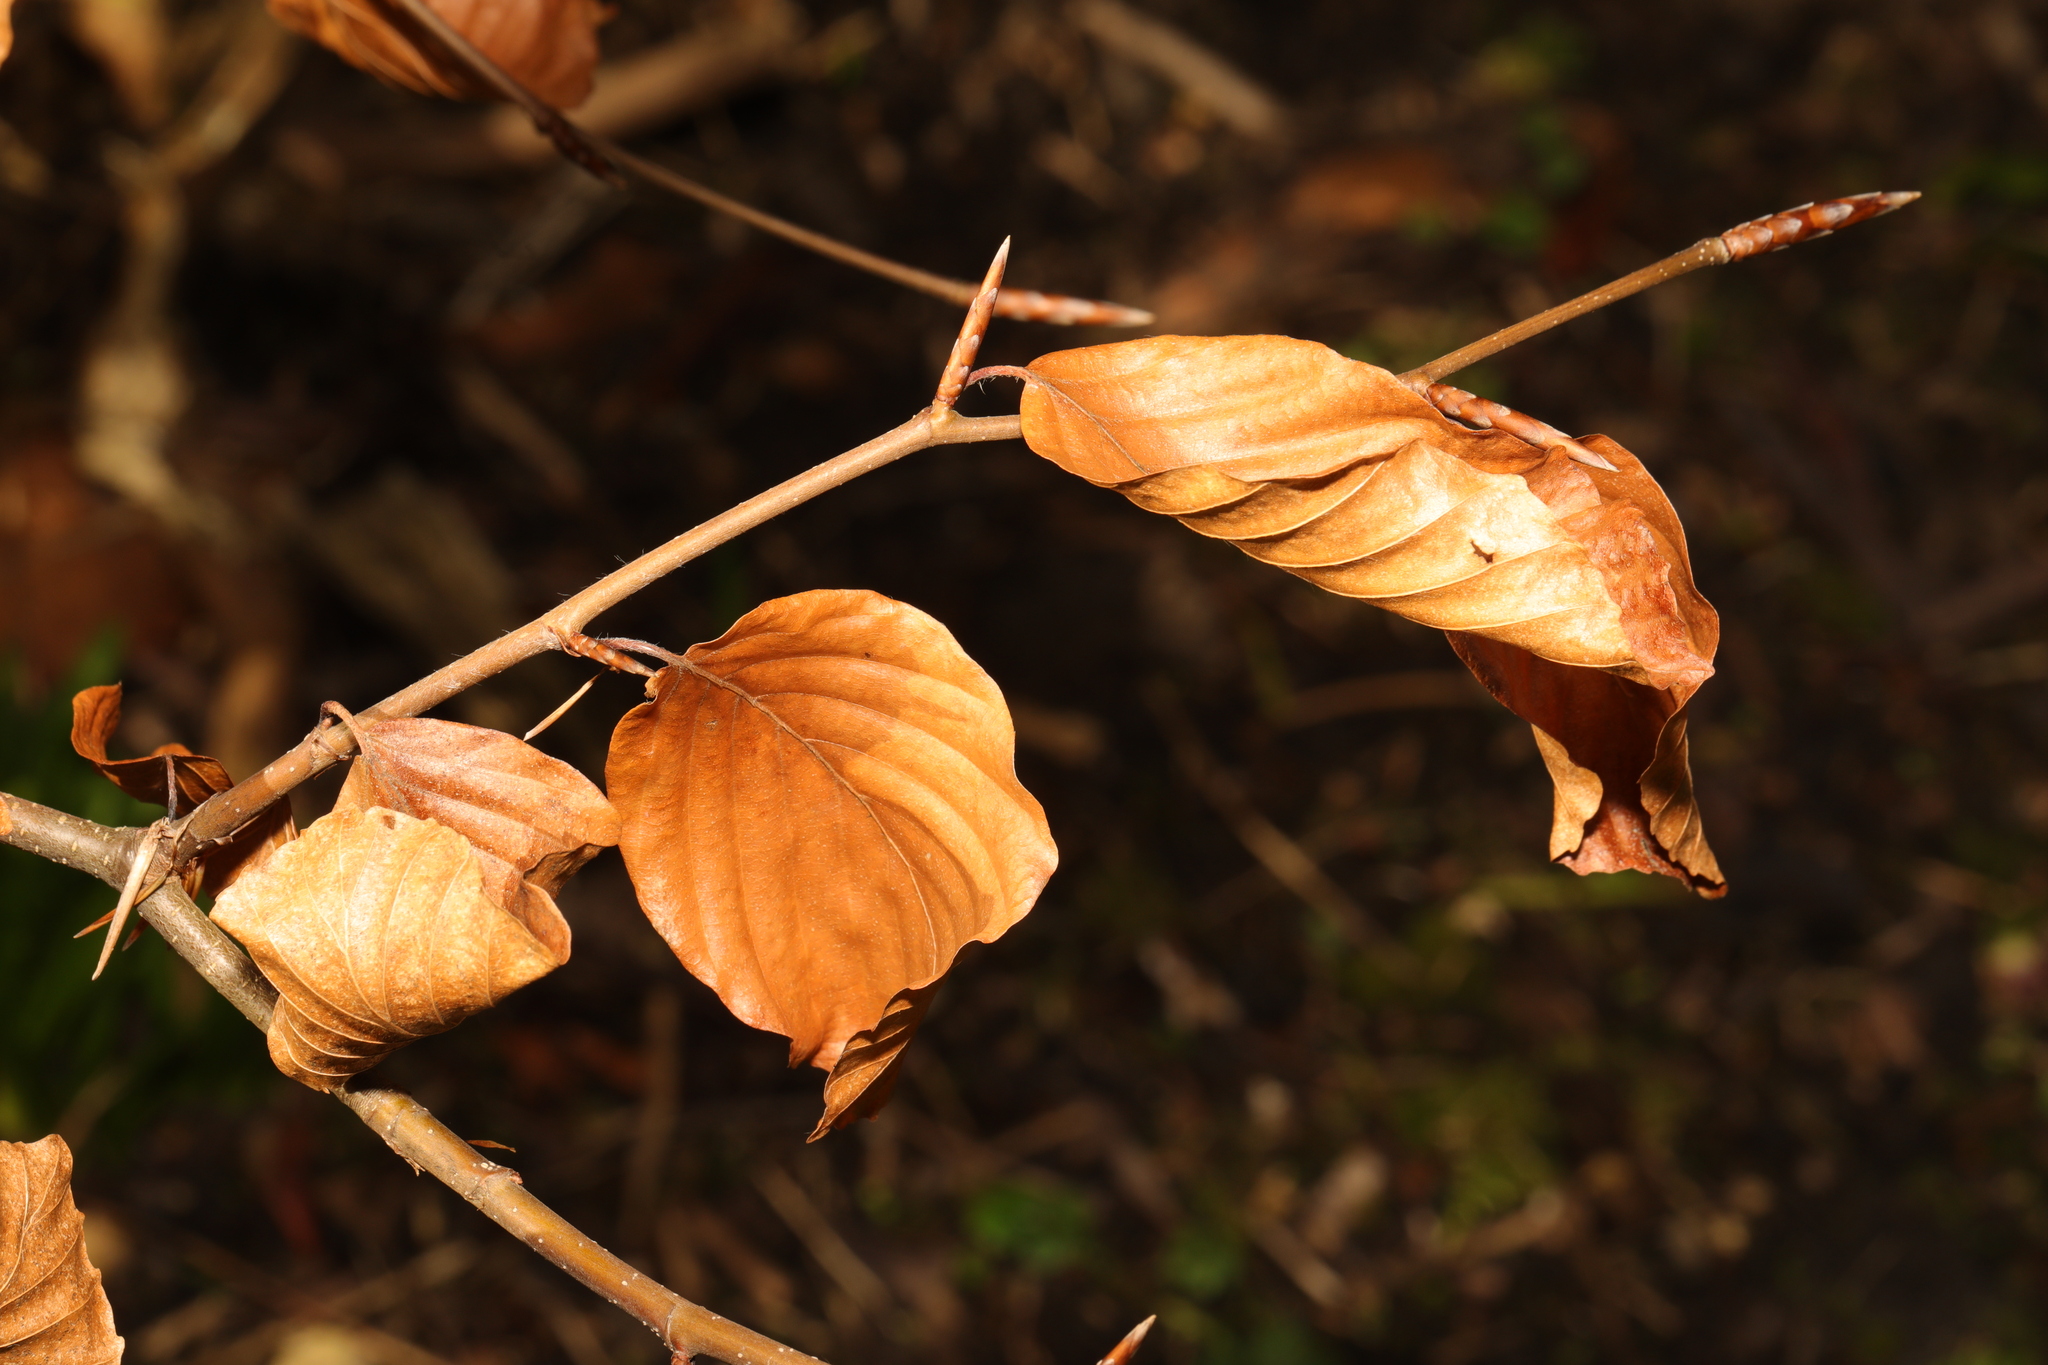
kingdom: Plantae
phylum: Tracheophyta
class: Magnoliopsida
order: Fagales
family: Fagaceae
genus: Fagus
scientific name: Fagus sylvatica
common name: Beech
